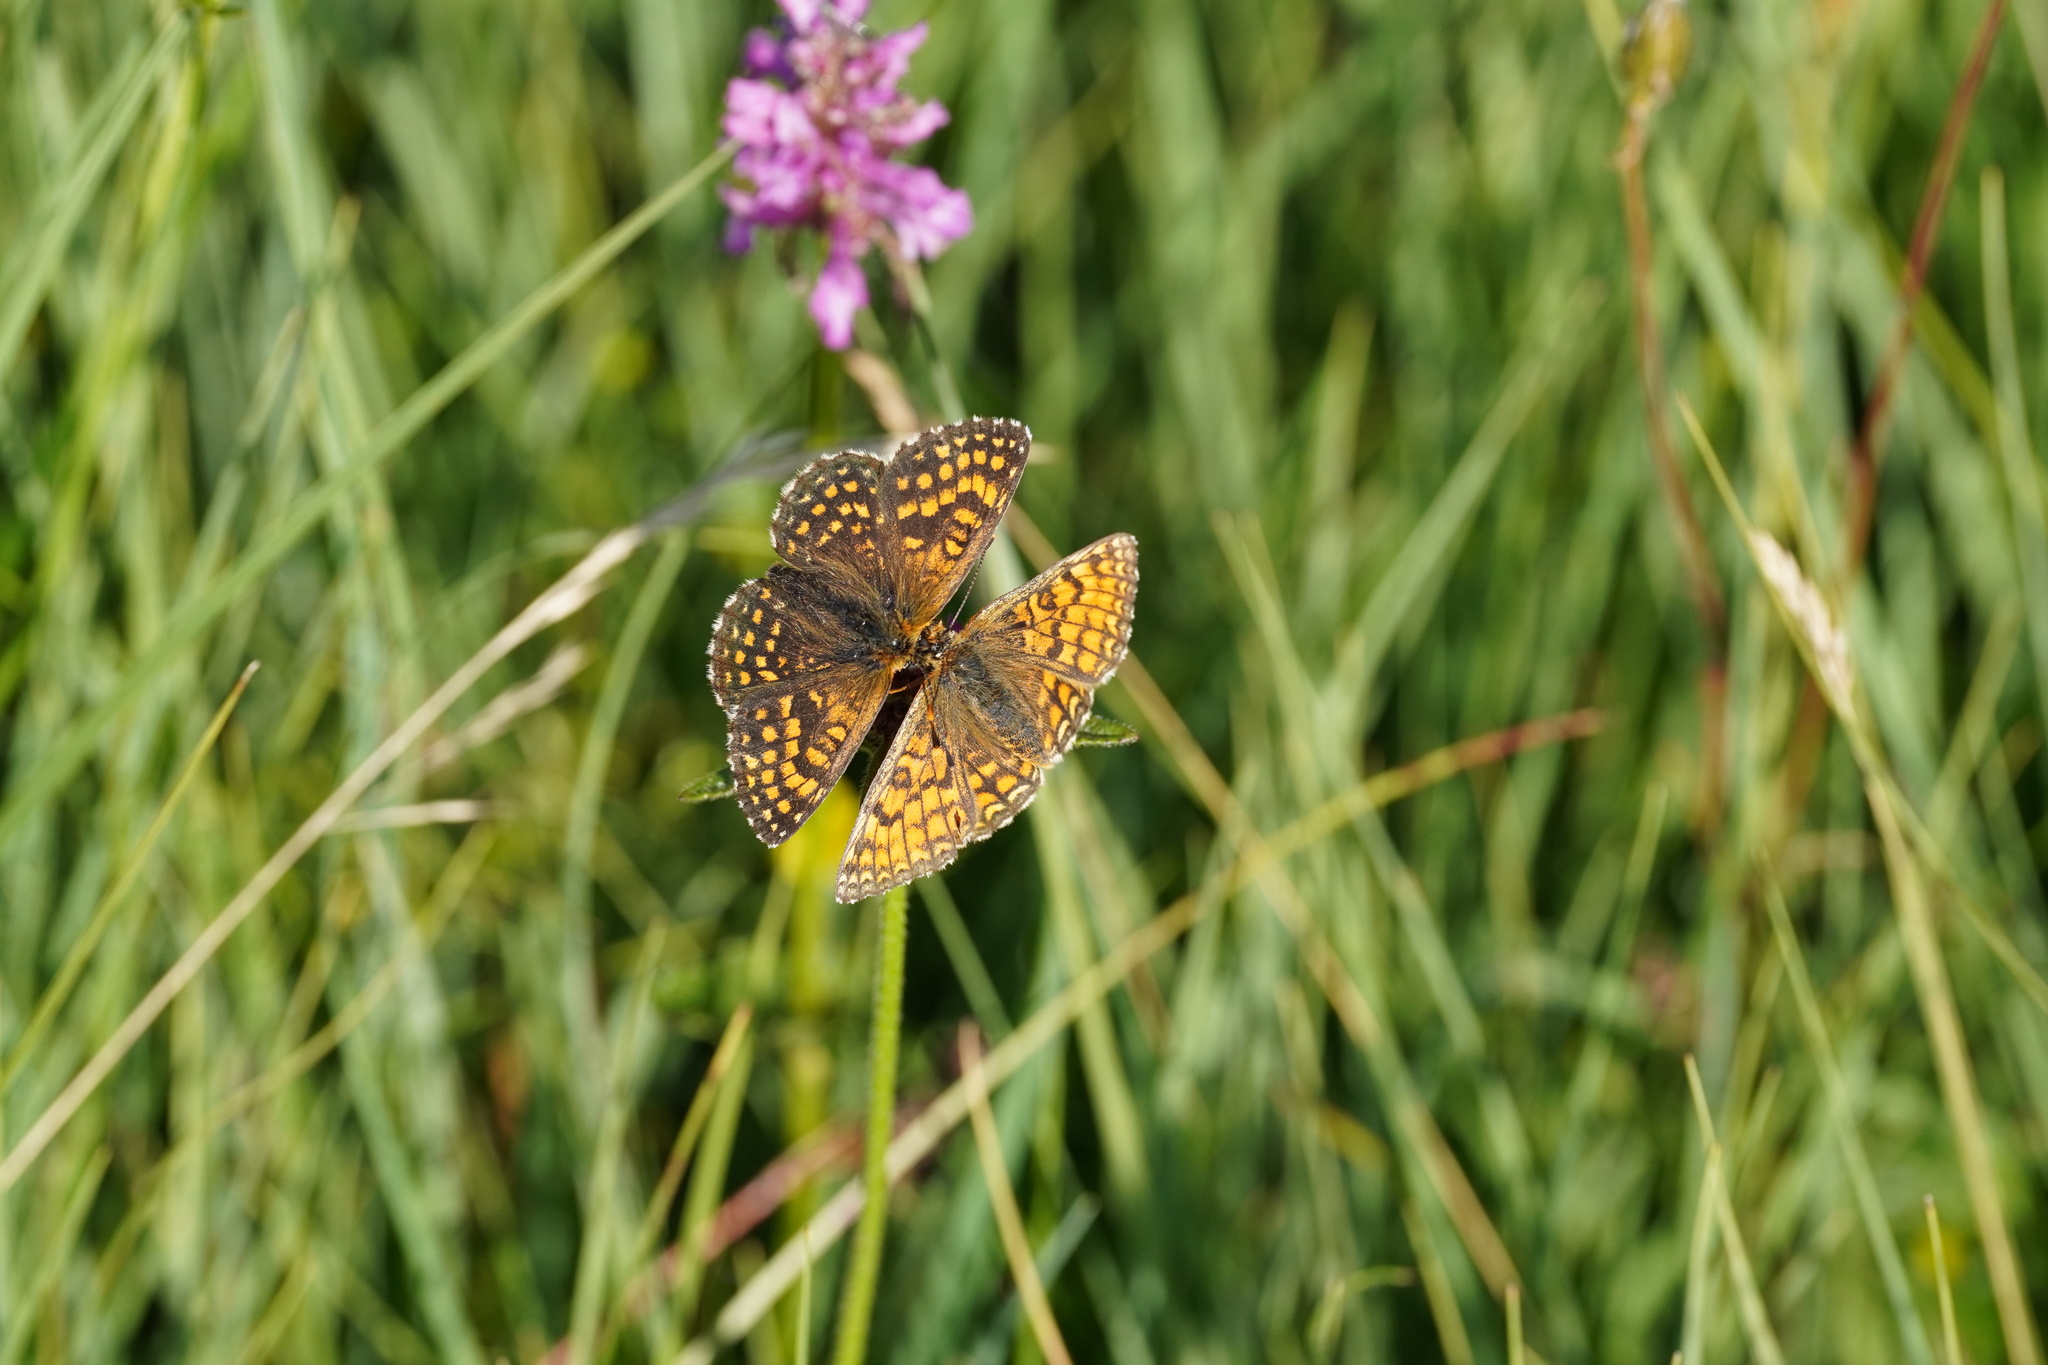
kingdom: Animalia
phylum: Arthropoda
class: Insecta
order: Lepidoptera
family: Nymphalidae
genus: Mellicta
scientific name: Mellicta parthenoides
